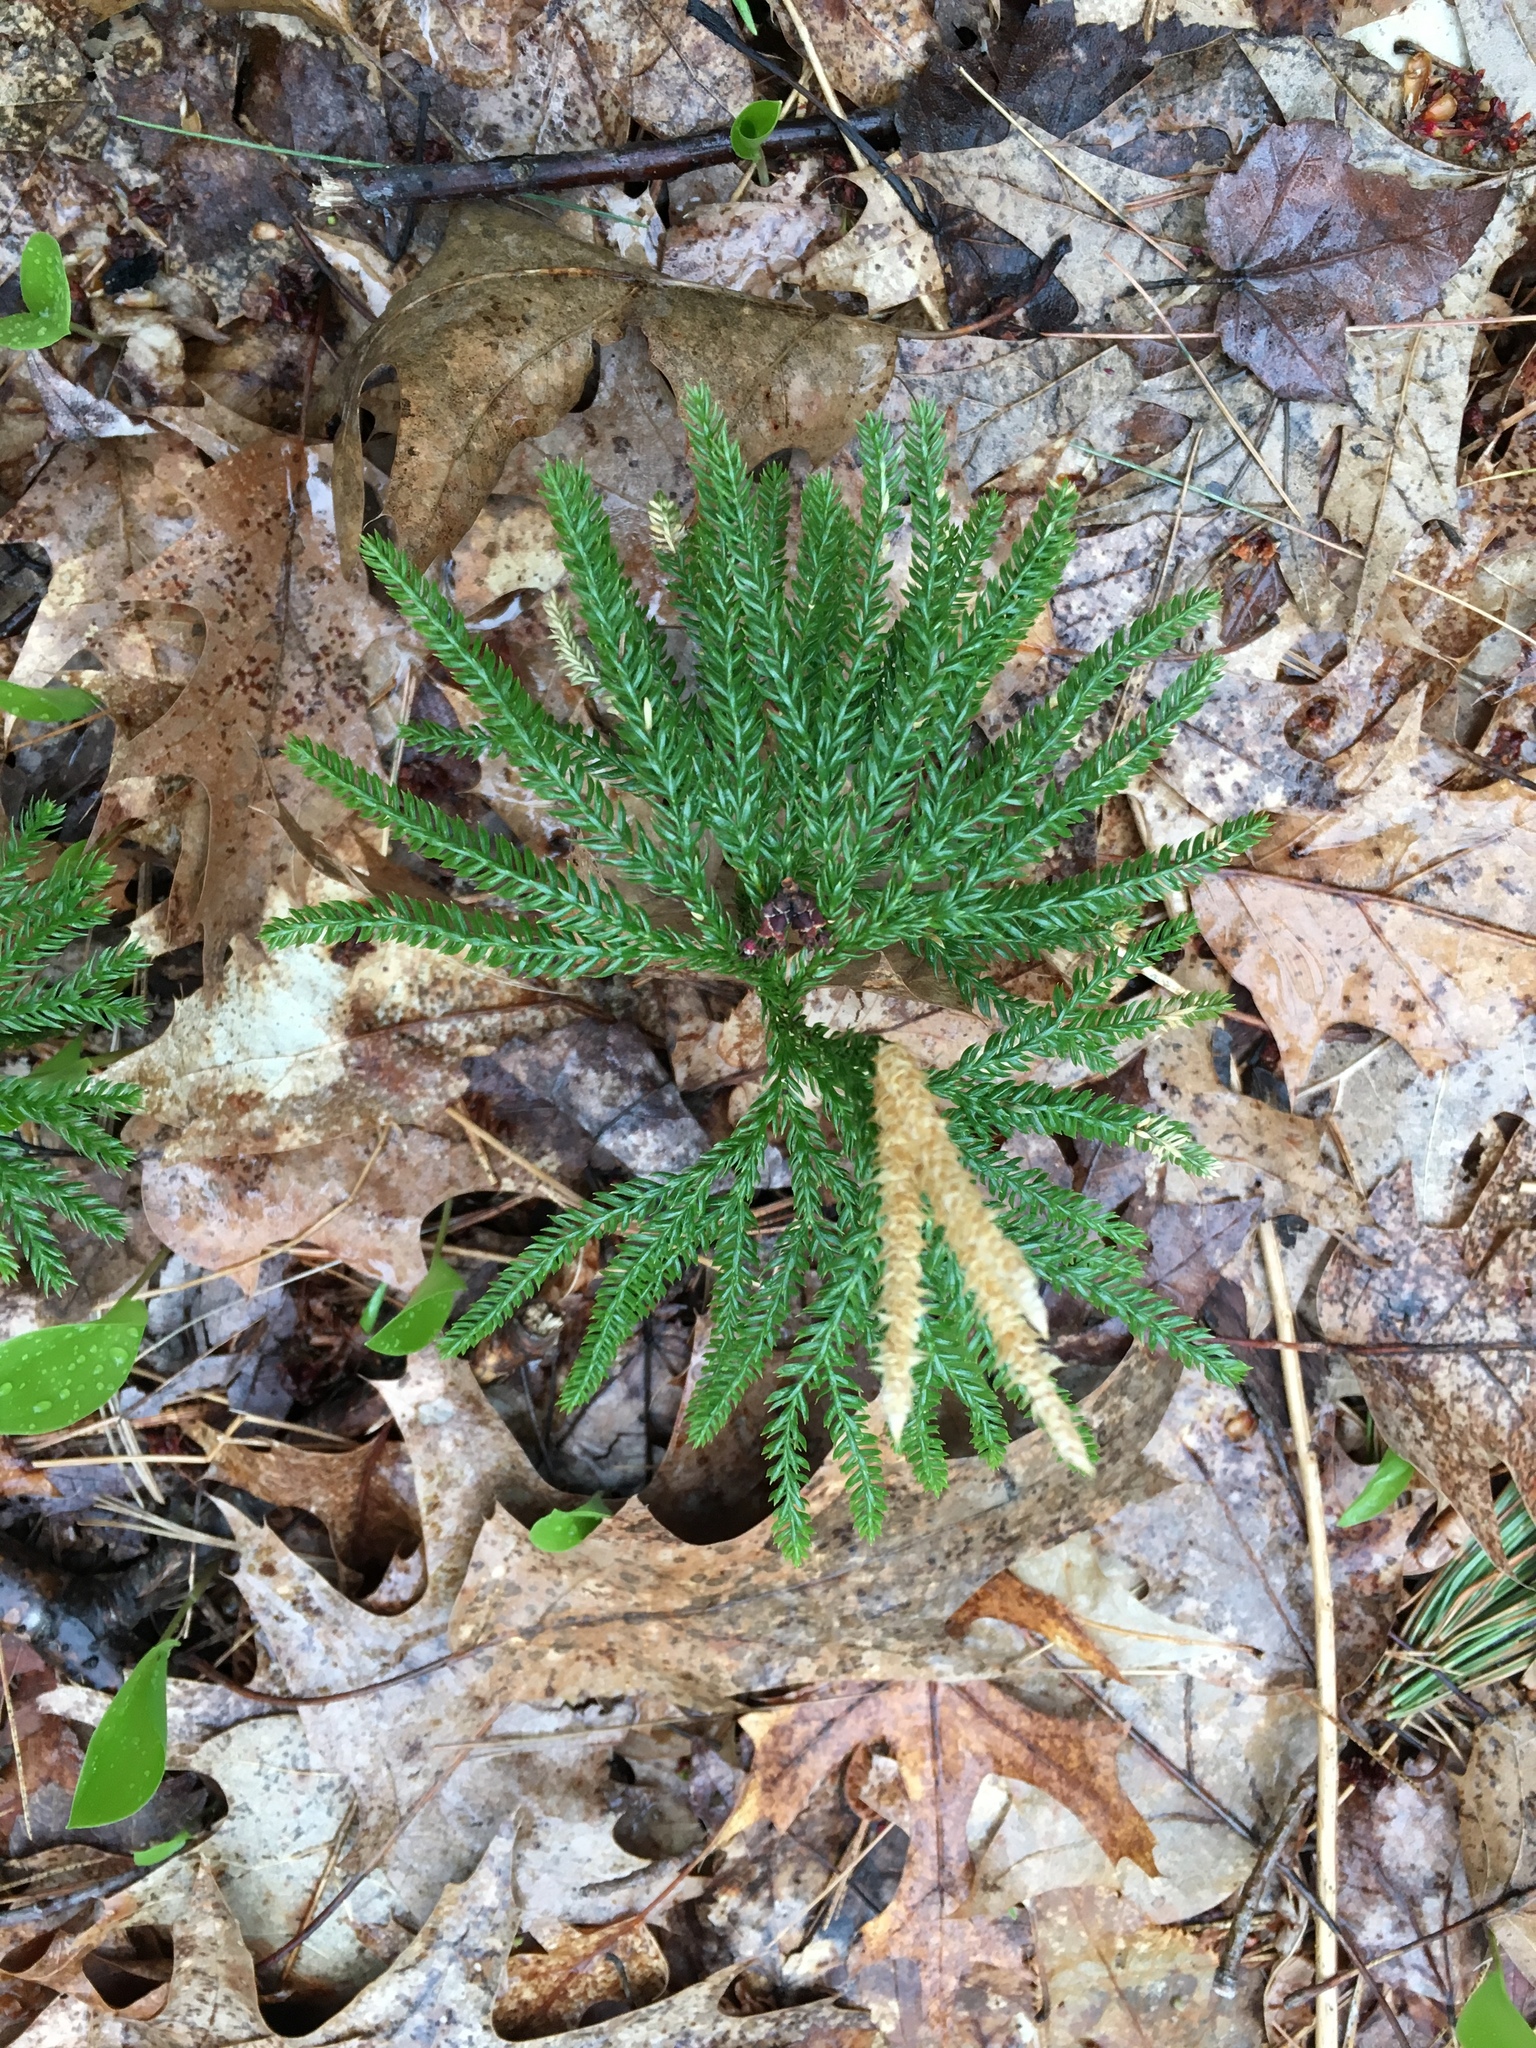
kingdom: Plantae
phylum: Tracheophyta
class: Lycopodiopsida
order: Lycopodiales
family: Lycopodiaceae
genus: Dendrolycopodium
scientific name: Dendrolycopodium obscurum
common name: Common ground-pine
